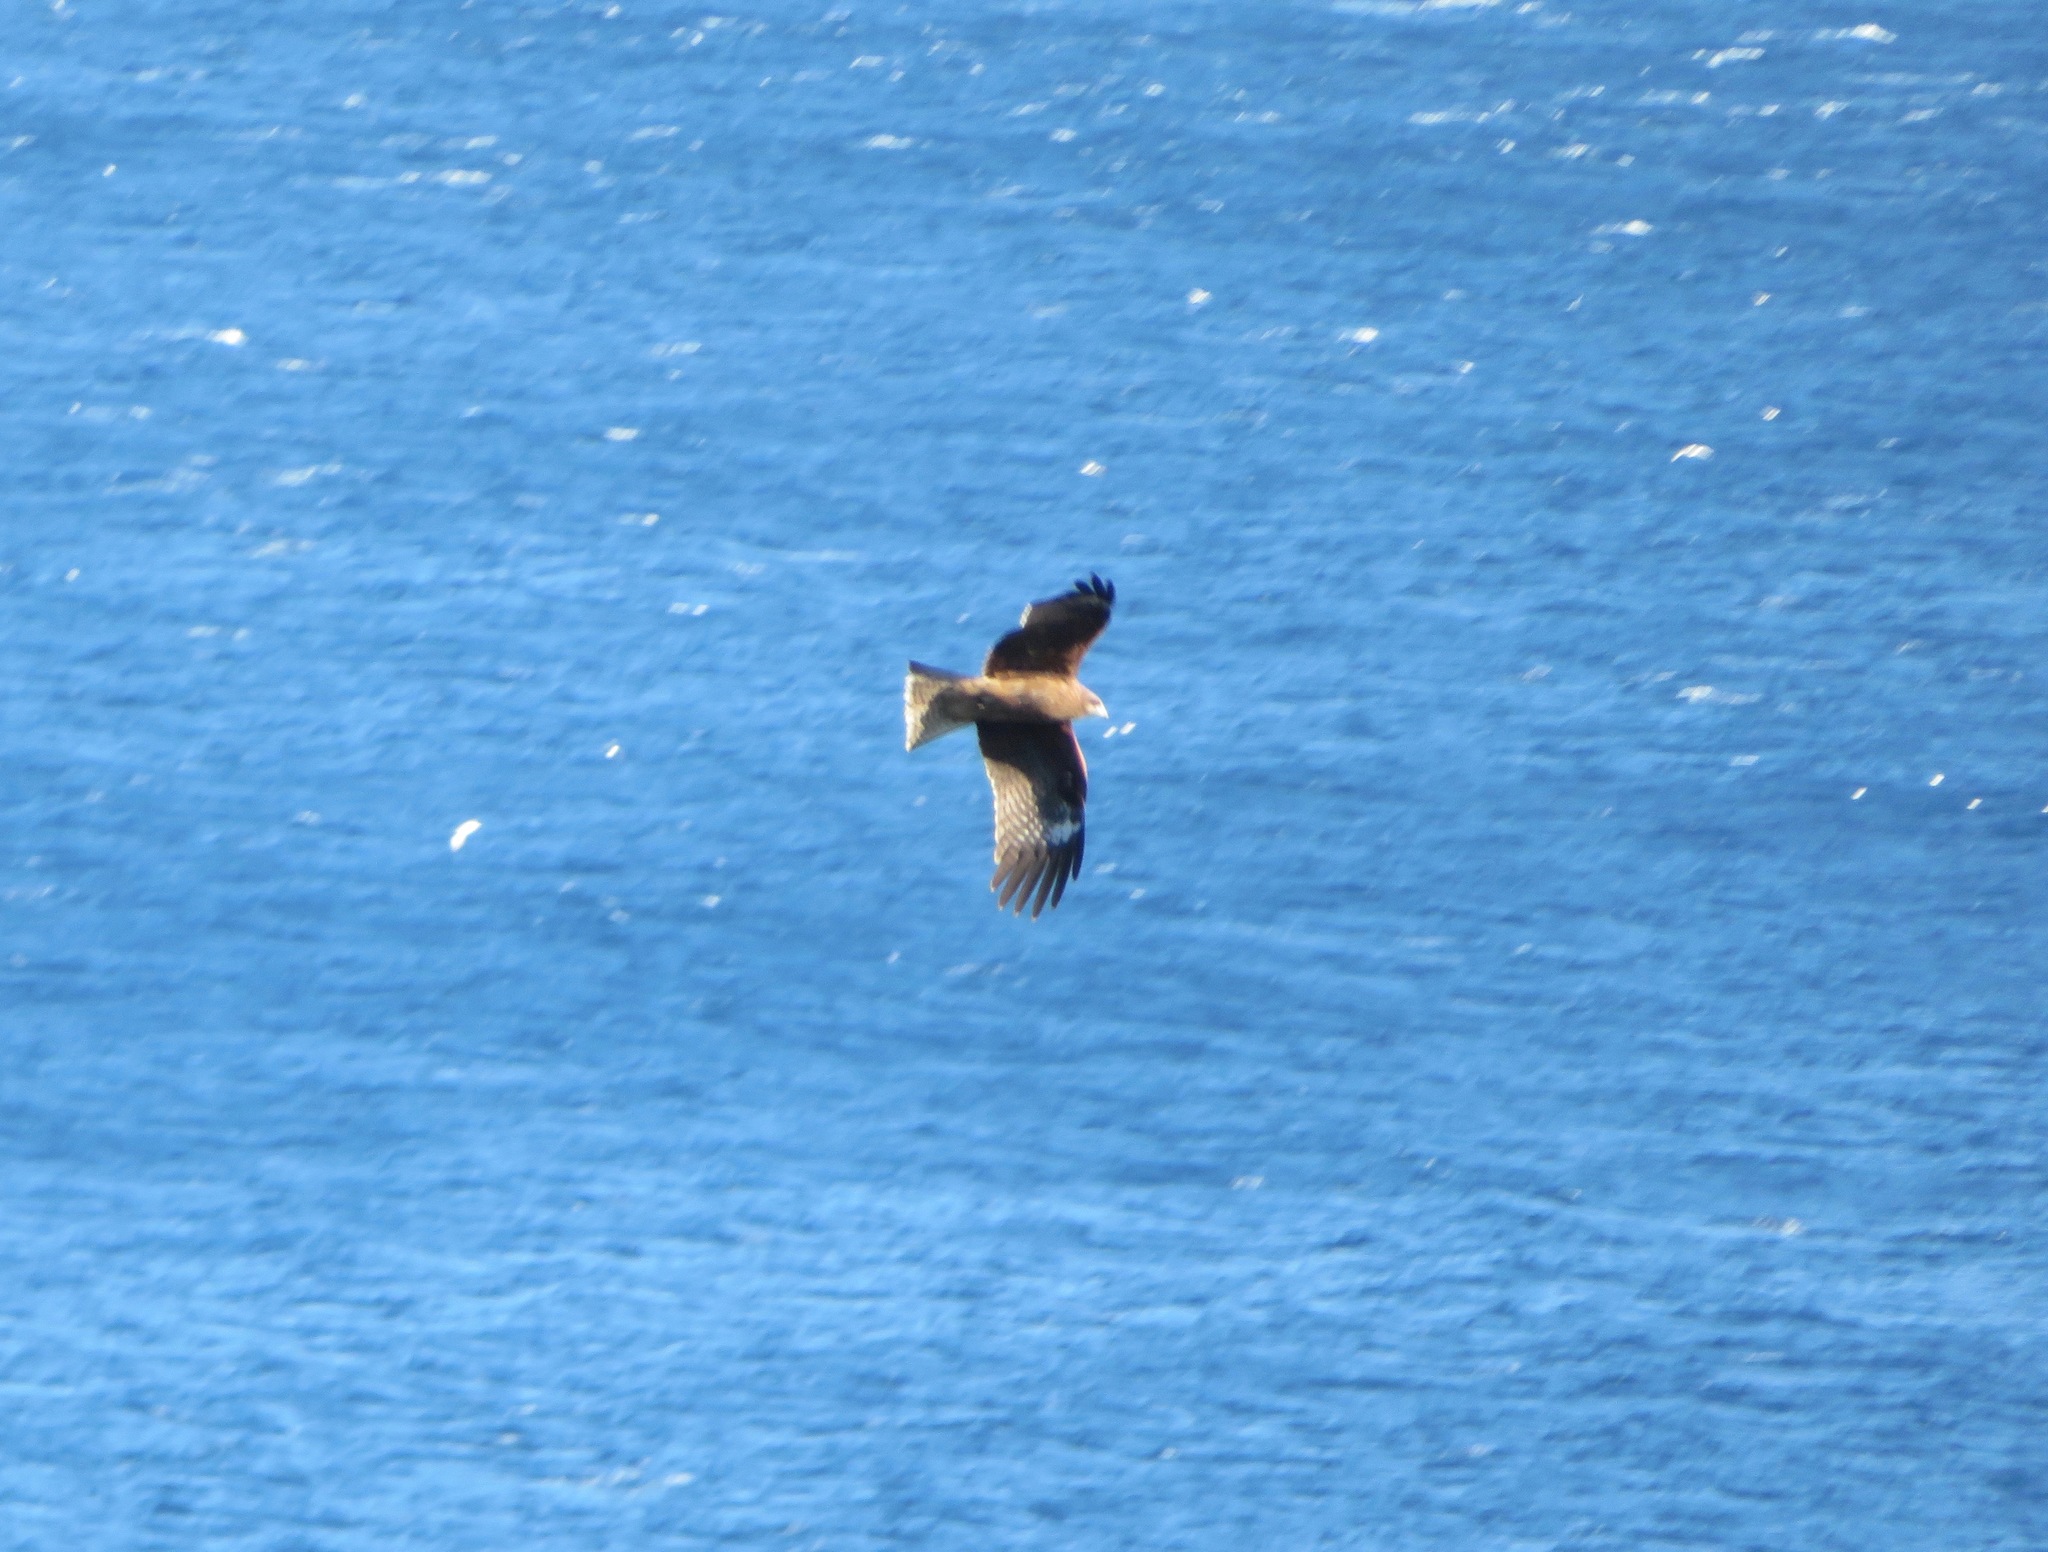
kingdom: Animalia
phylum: Chordata
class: Aves
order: Accipitriformes
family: Accipitridae
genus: Milvus
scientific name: Milvus migrans
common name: Black kite
